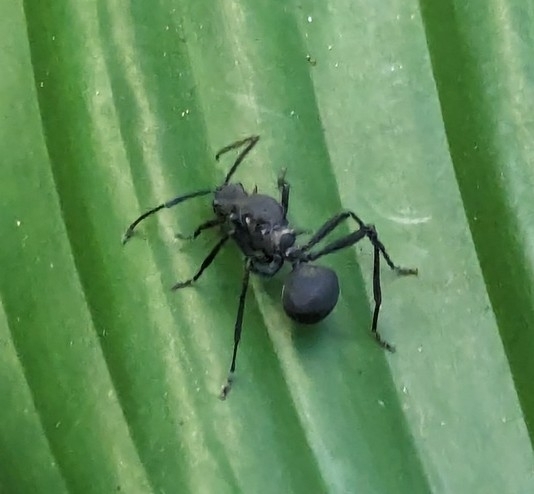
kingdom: Animalia
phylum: Arthropoda
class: Insecta
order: Hymenoptera
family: Formicidae
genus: Polyrhachis
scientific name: Polyrhachis armata
